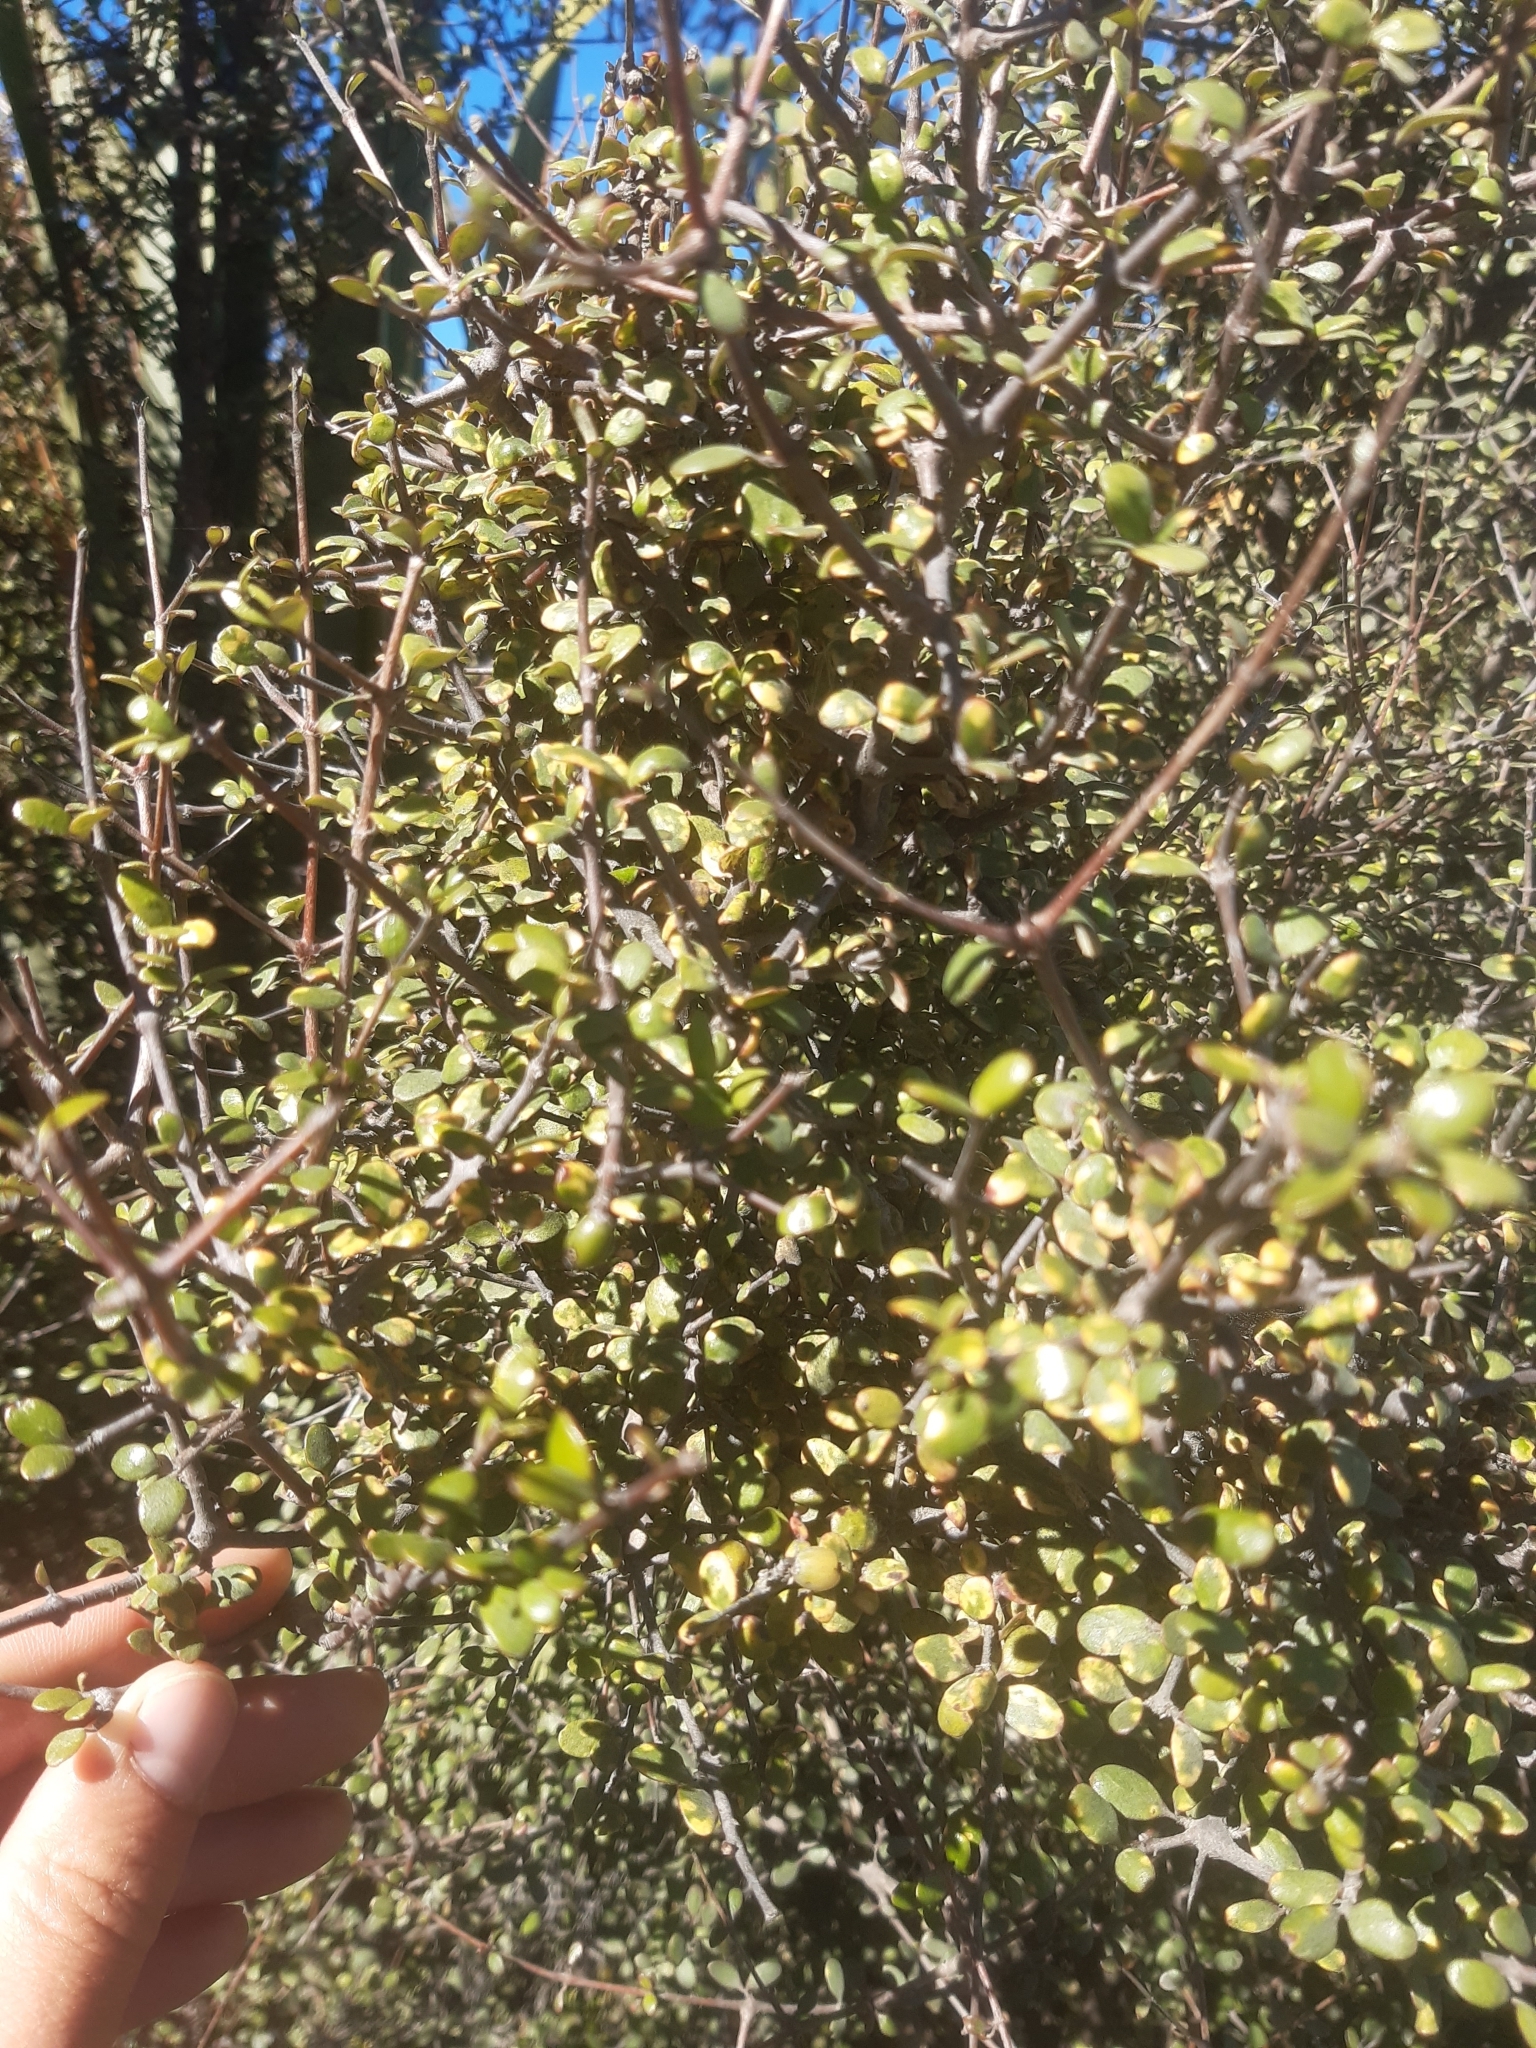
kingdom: Plantae
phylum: Tracheophyta
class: Magnoliopsida
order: Gentianales
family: Rubiaceae
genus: Coprosma
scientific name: Coprosma crassifolia
